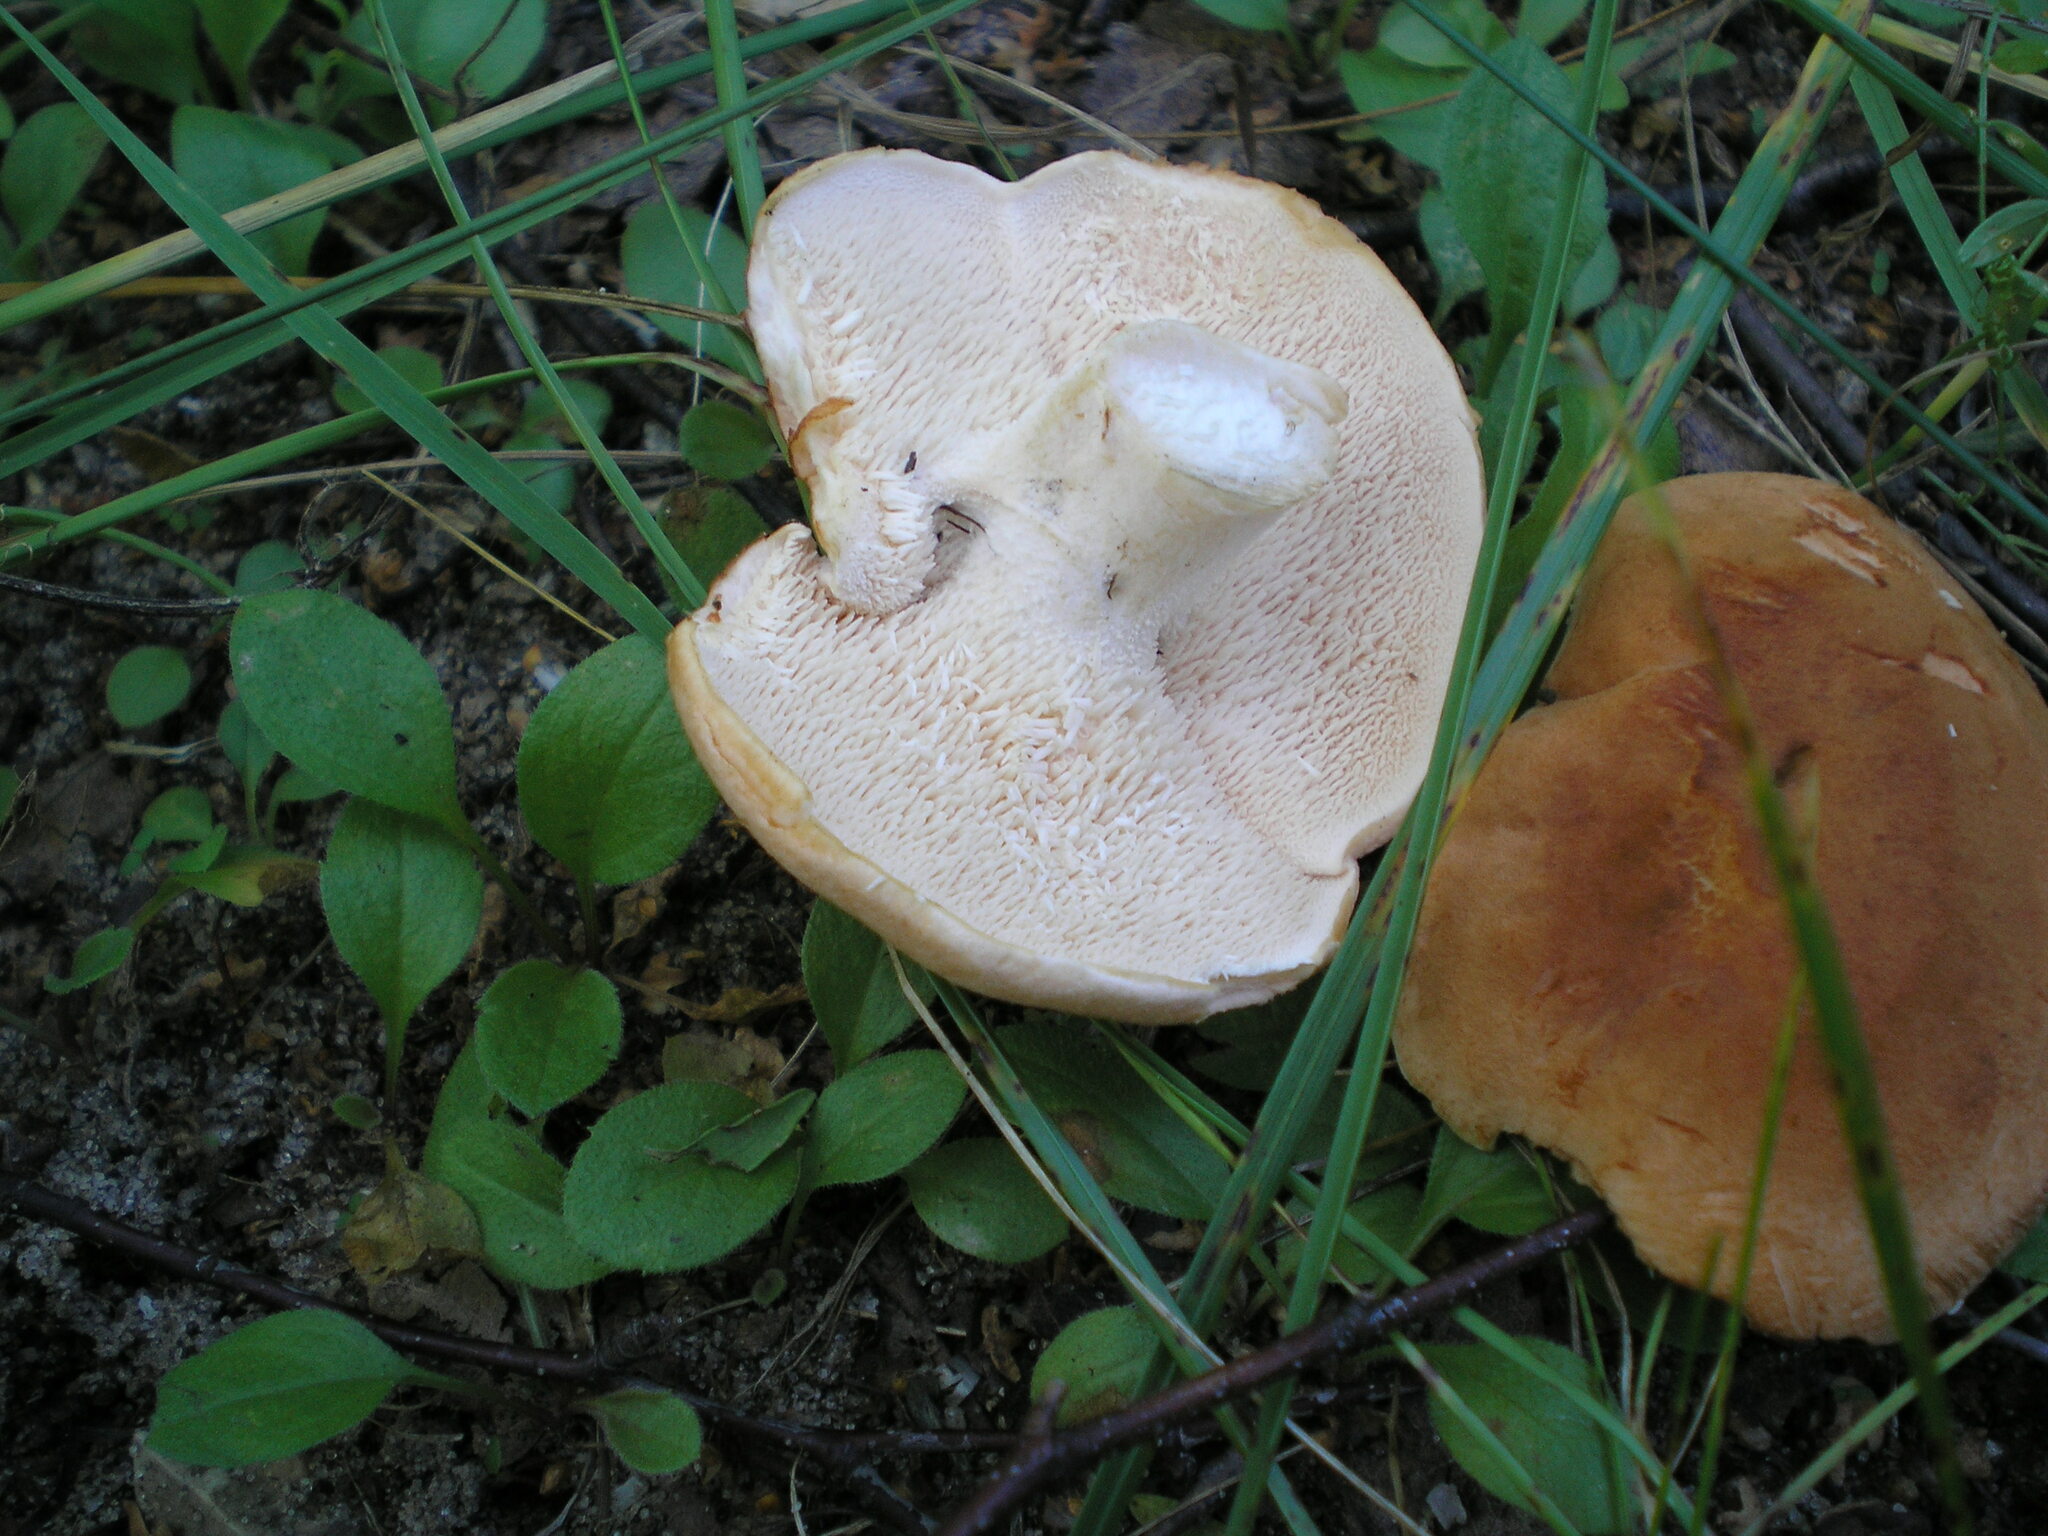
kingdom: Fungi
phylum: Basidiomycota
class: Agaricomycetes
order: Cantharellales
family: Hydnaceae
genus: Hydnum
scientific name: Hydnum repandum
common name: Wood hedgehog
